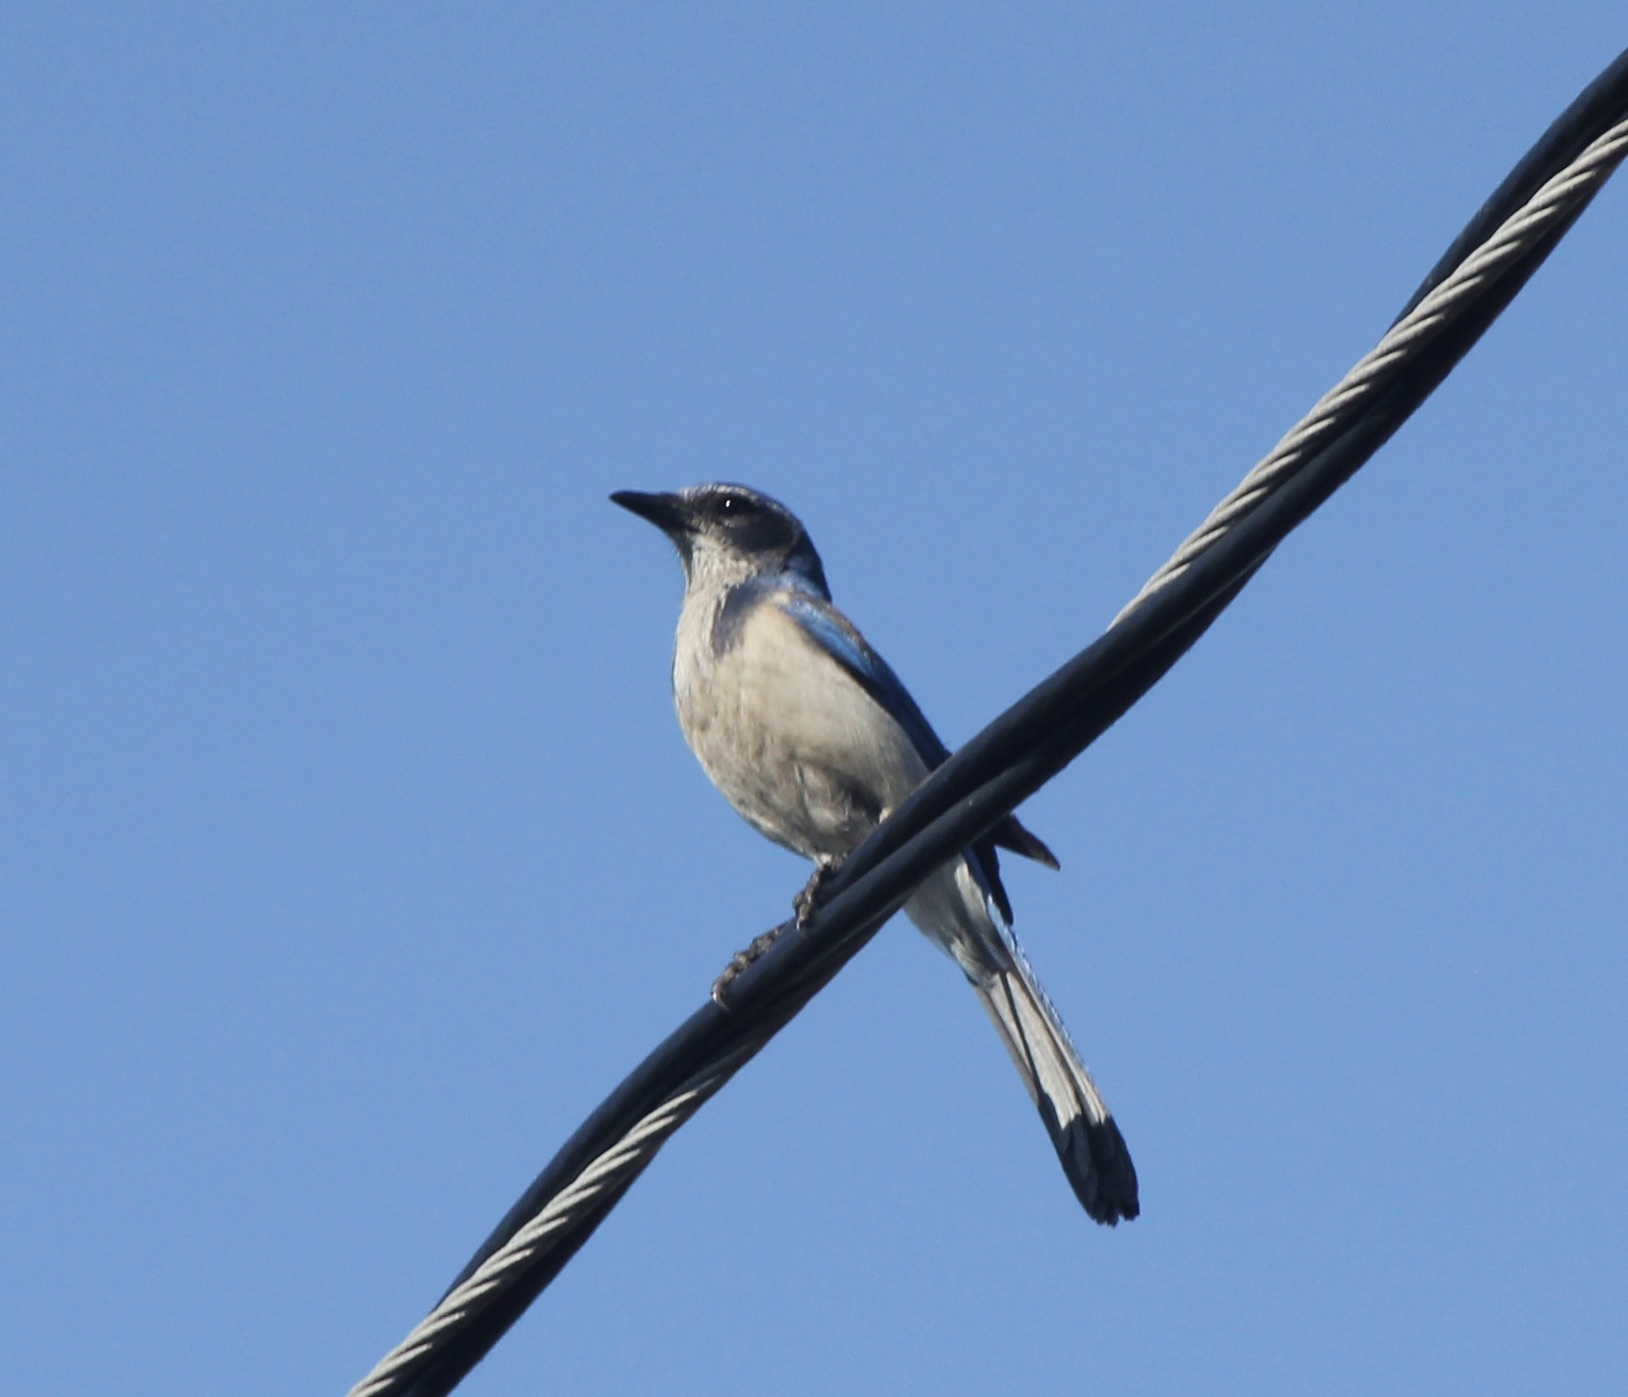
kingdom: Animalia
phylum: Chordata
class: Aves
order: Passeriformes
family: Corvidae
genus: Aphelocoma
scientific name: Aphelocoma californica
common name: California scrub-jay
